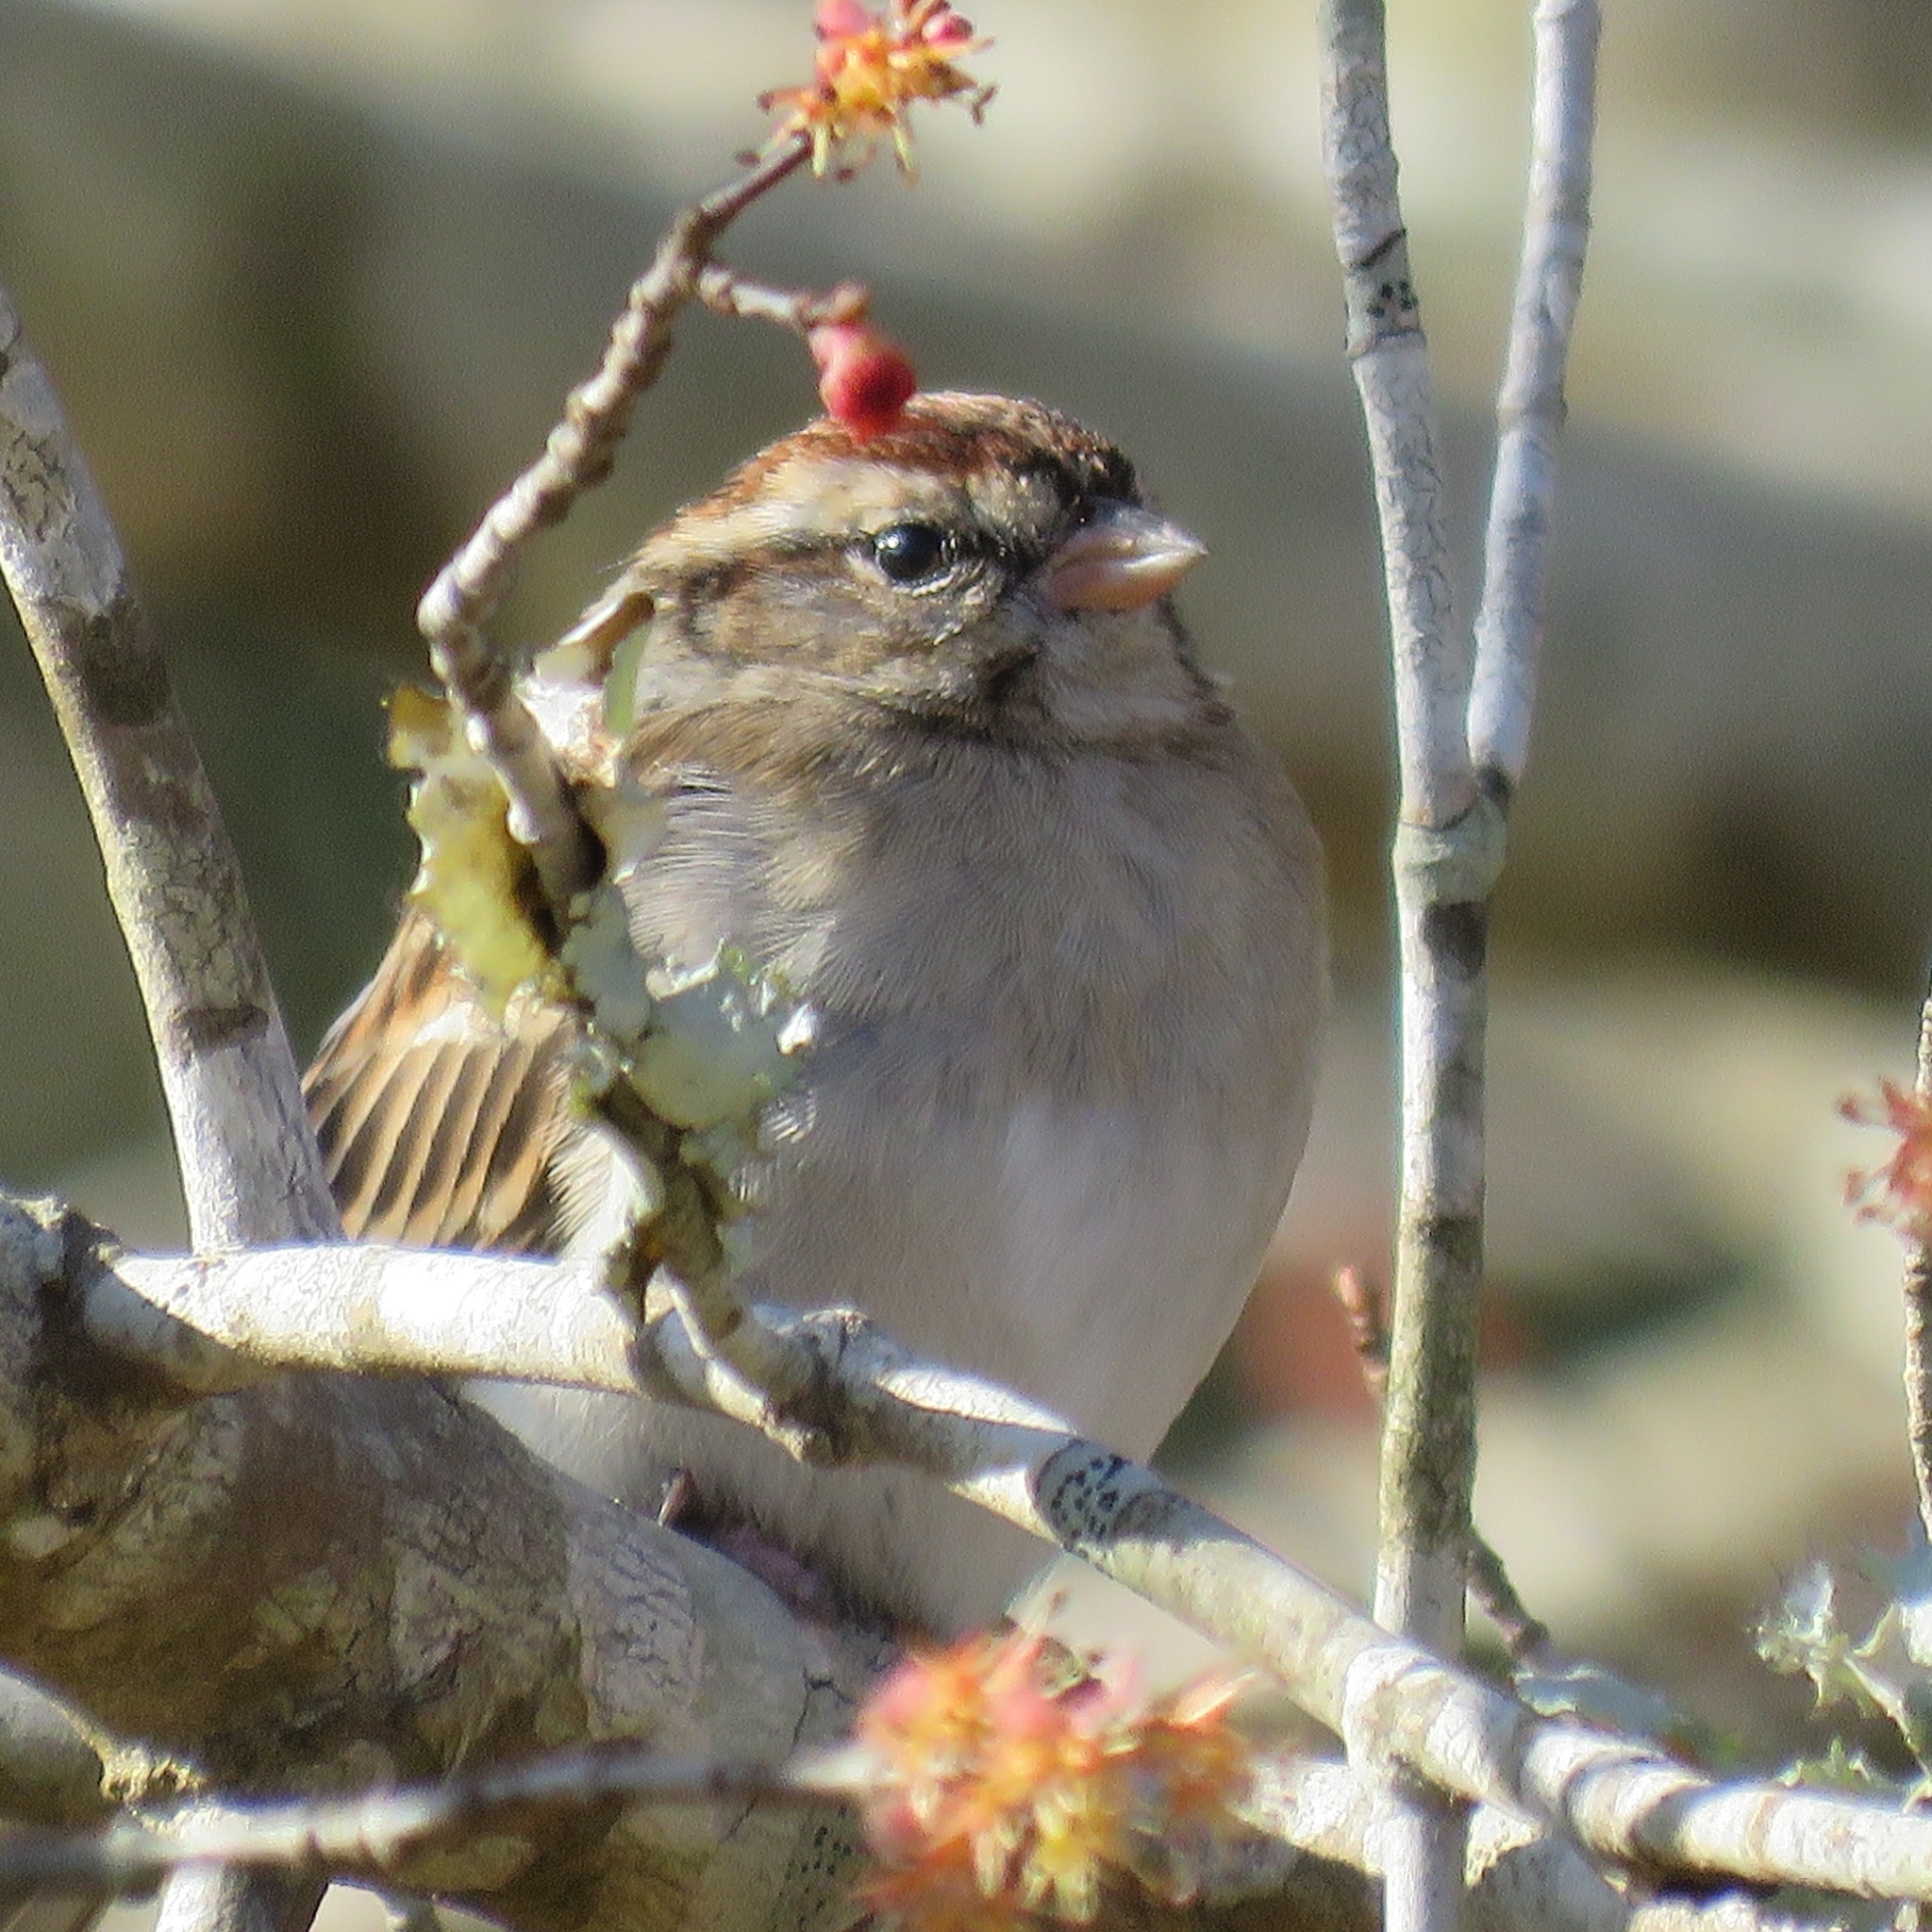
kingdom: Animalia
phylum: Chordata
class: Aves
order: Passeriformes
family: Passerellidae
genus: Spizella
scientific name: Spizella passerina
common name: Chipping sparrow
